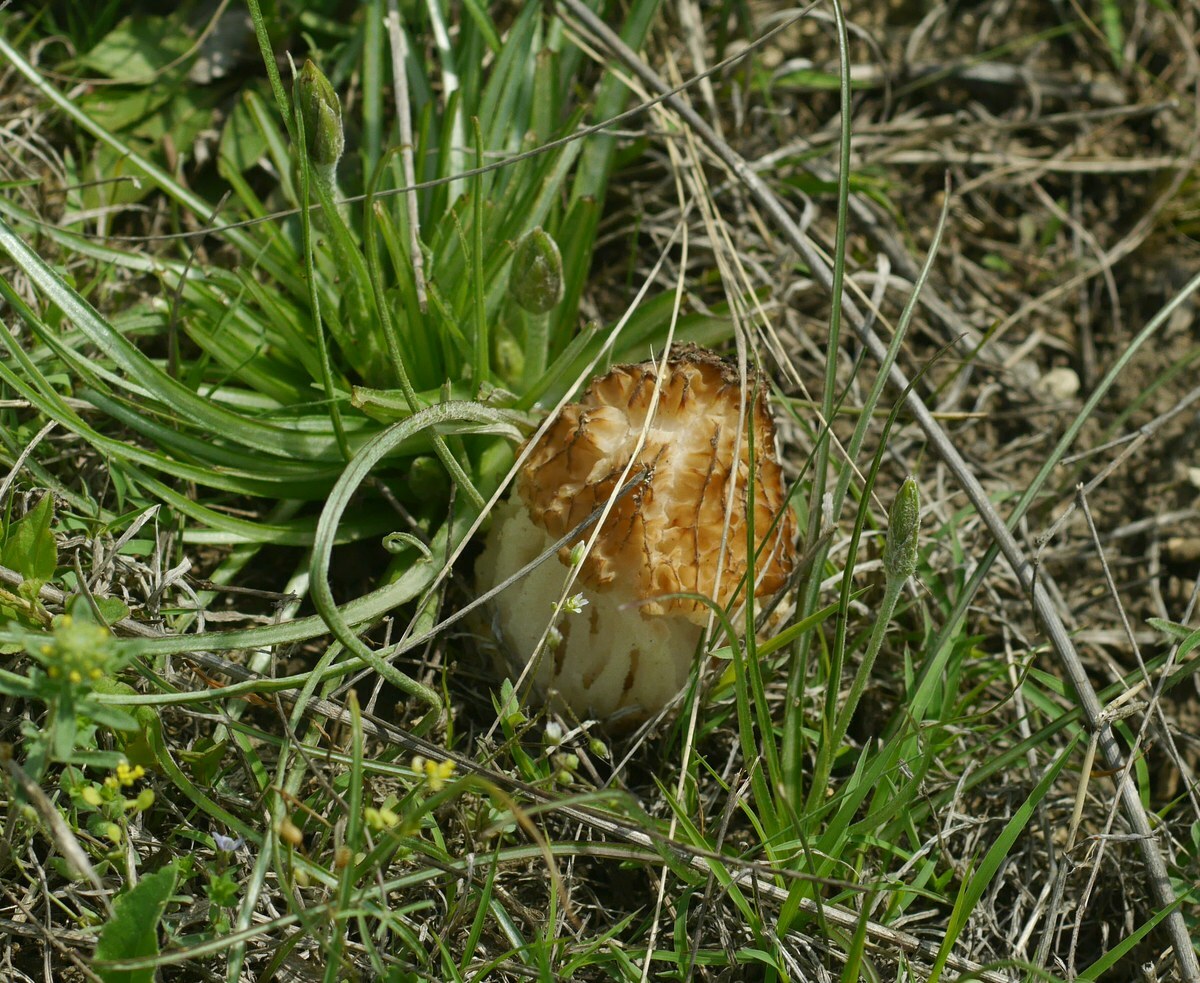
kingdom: Fungi
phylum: Ascomycota
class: Pezizomycetes
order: Pezizales
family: Morchellaceae
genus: Morchella
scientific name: Morchella steppicola
